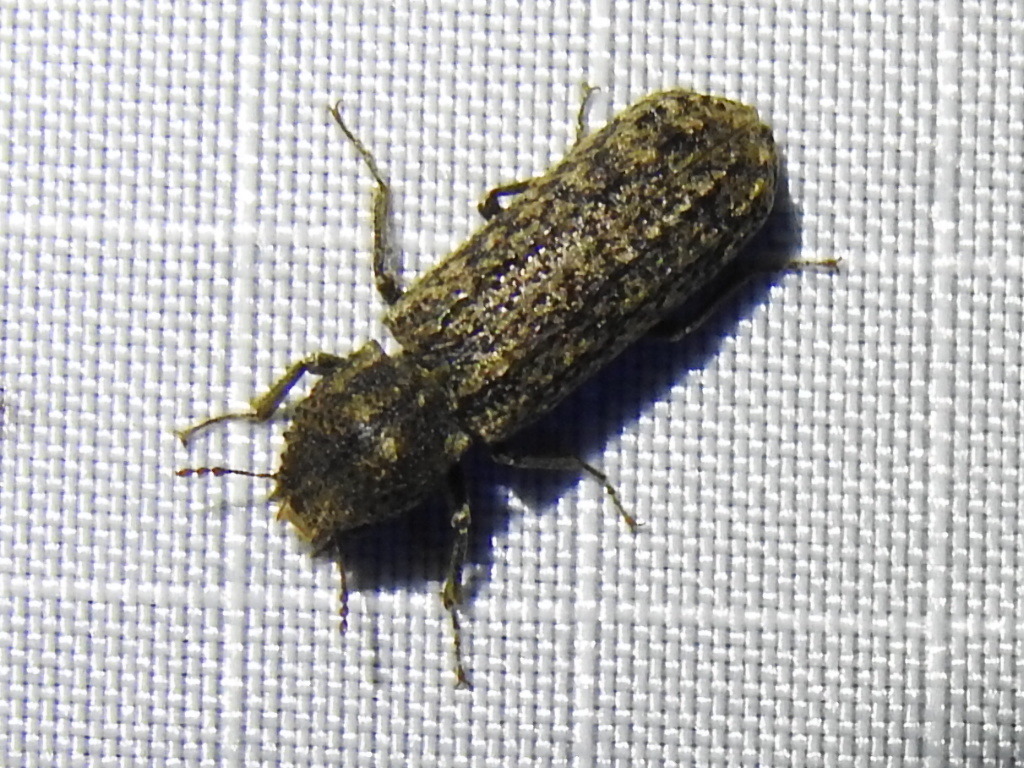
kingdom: Animalia
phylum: Arthropoda
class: Insecta
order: Coleoptera
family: Bostrichidae
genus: Lichenophanes
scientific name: Lichenophanes bicornis
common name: Two-horned powder-post beetle
